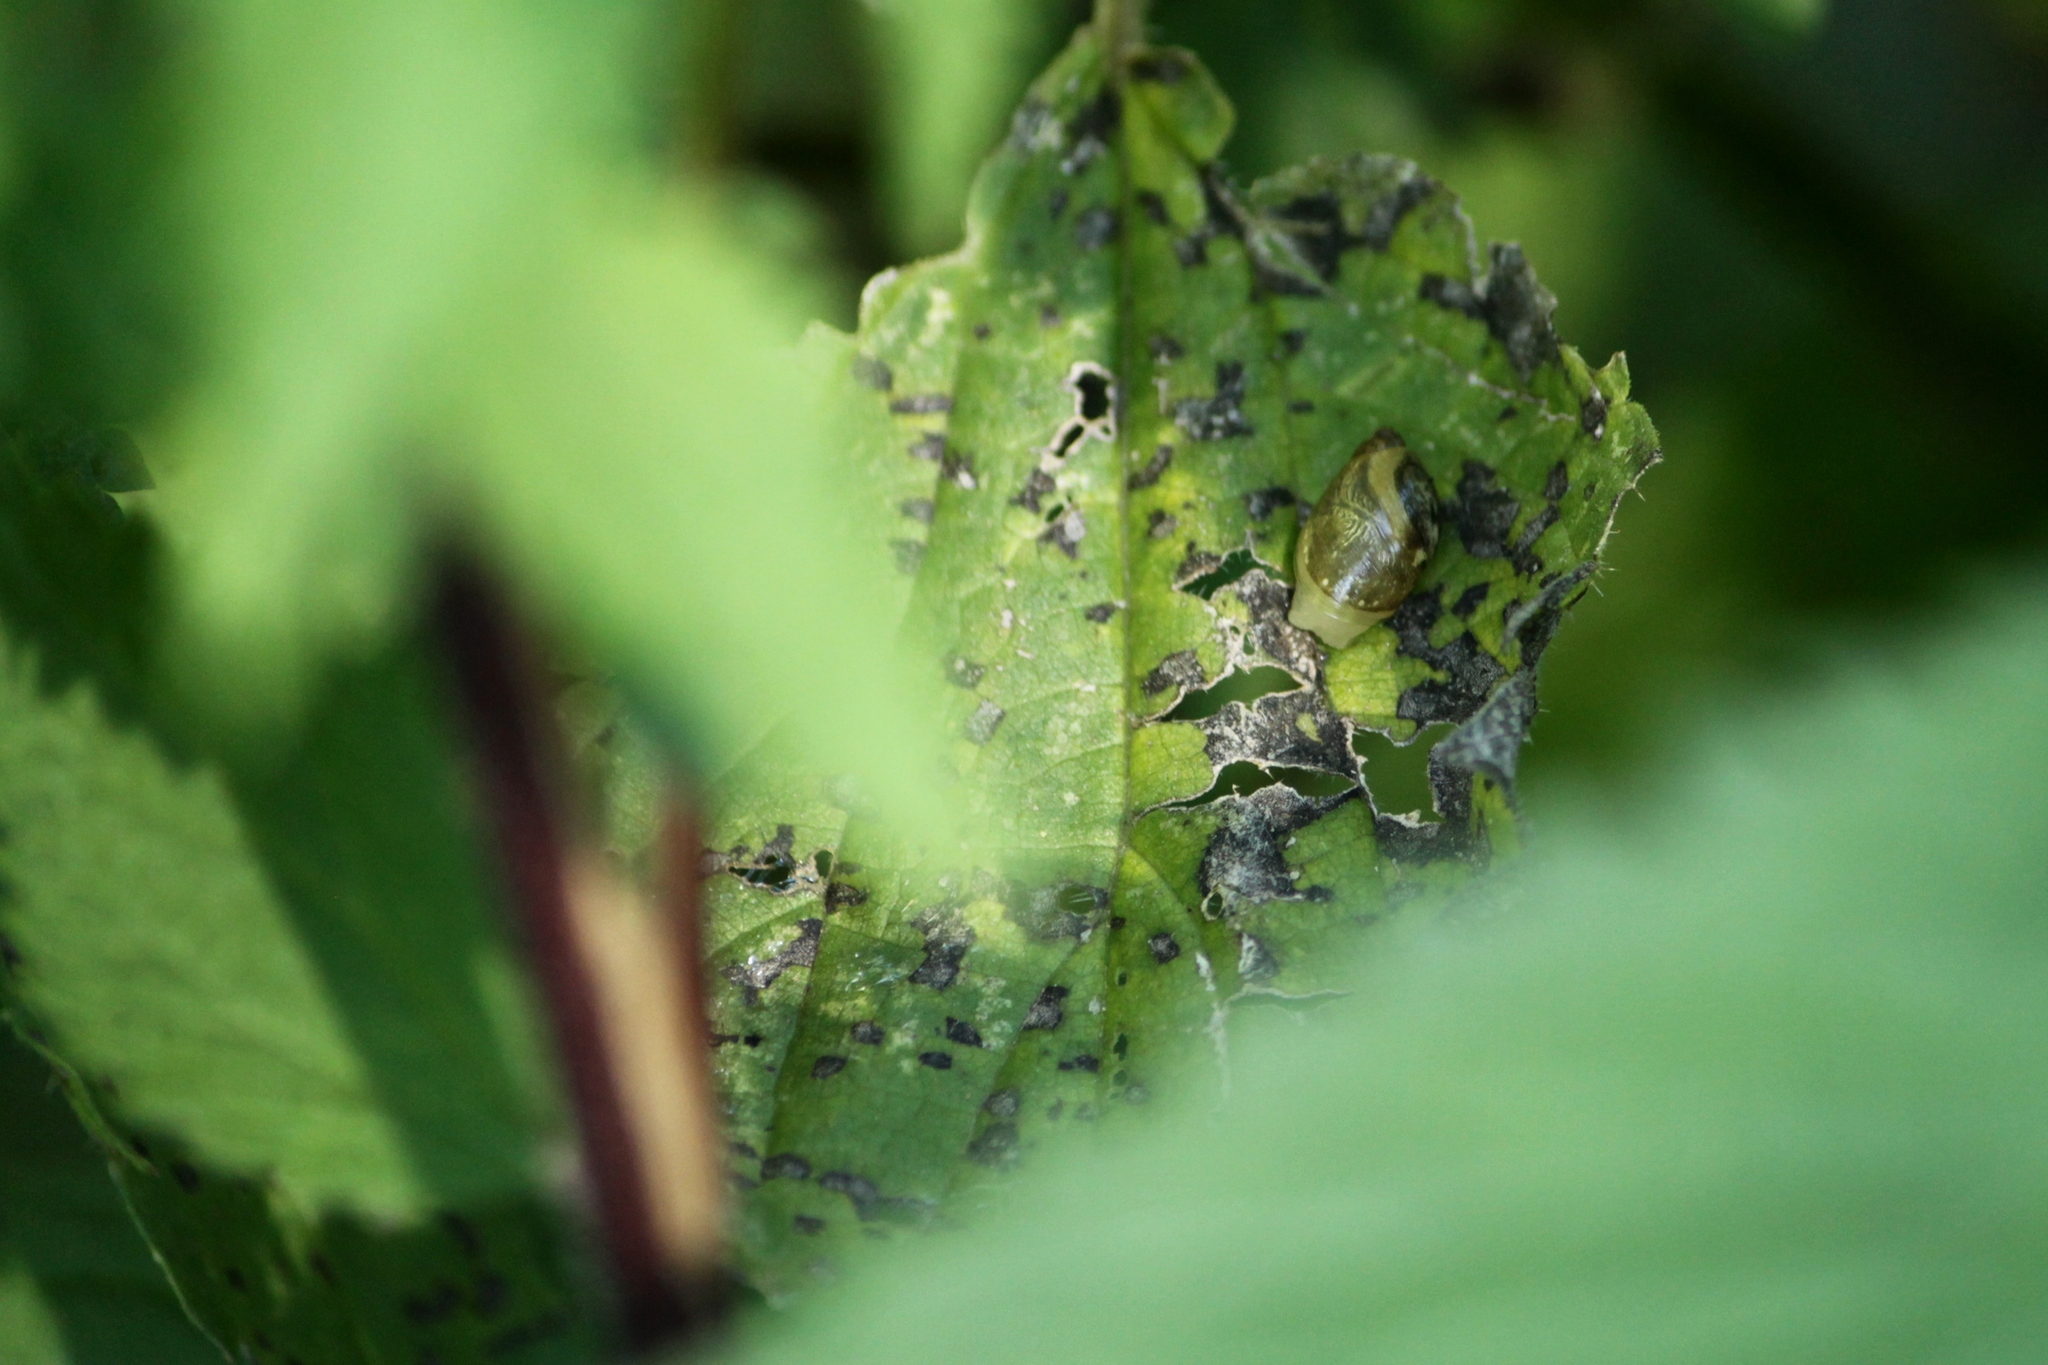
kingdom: Animalia
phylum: Mollusca
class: Gastropoda
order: Stylommatophora
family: Succineidae
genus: Succinea
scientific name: Succinea putris
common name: European ambersnail
